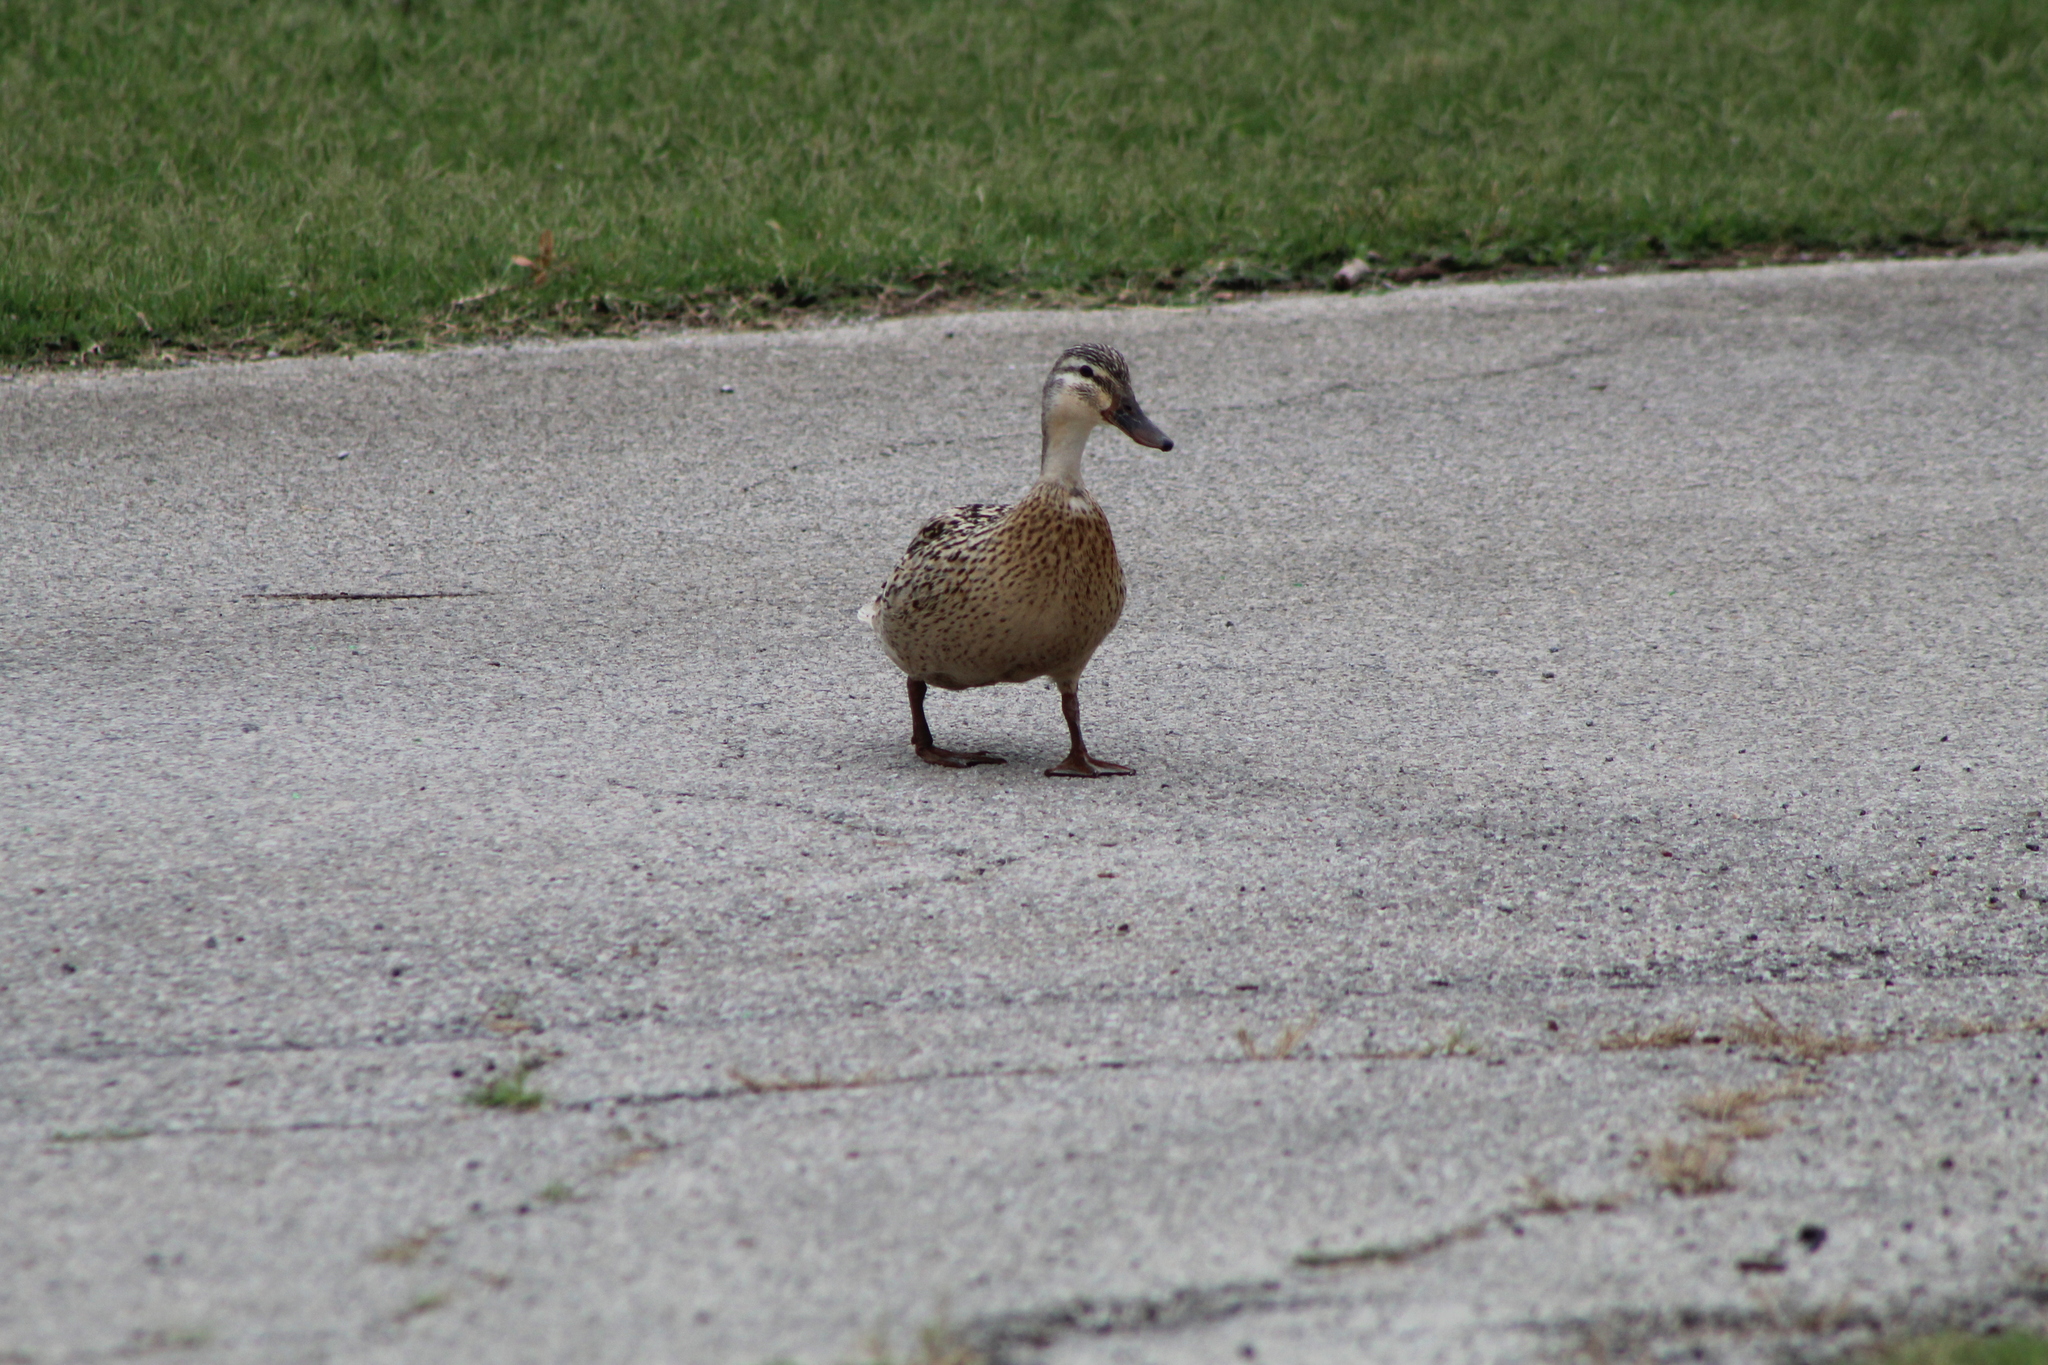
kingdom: Animalia
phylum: Chordata
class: Aves
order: Anseriformes
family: Anatidae
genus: Anas
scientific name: Anas platyrhynchos
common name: Mallard
